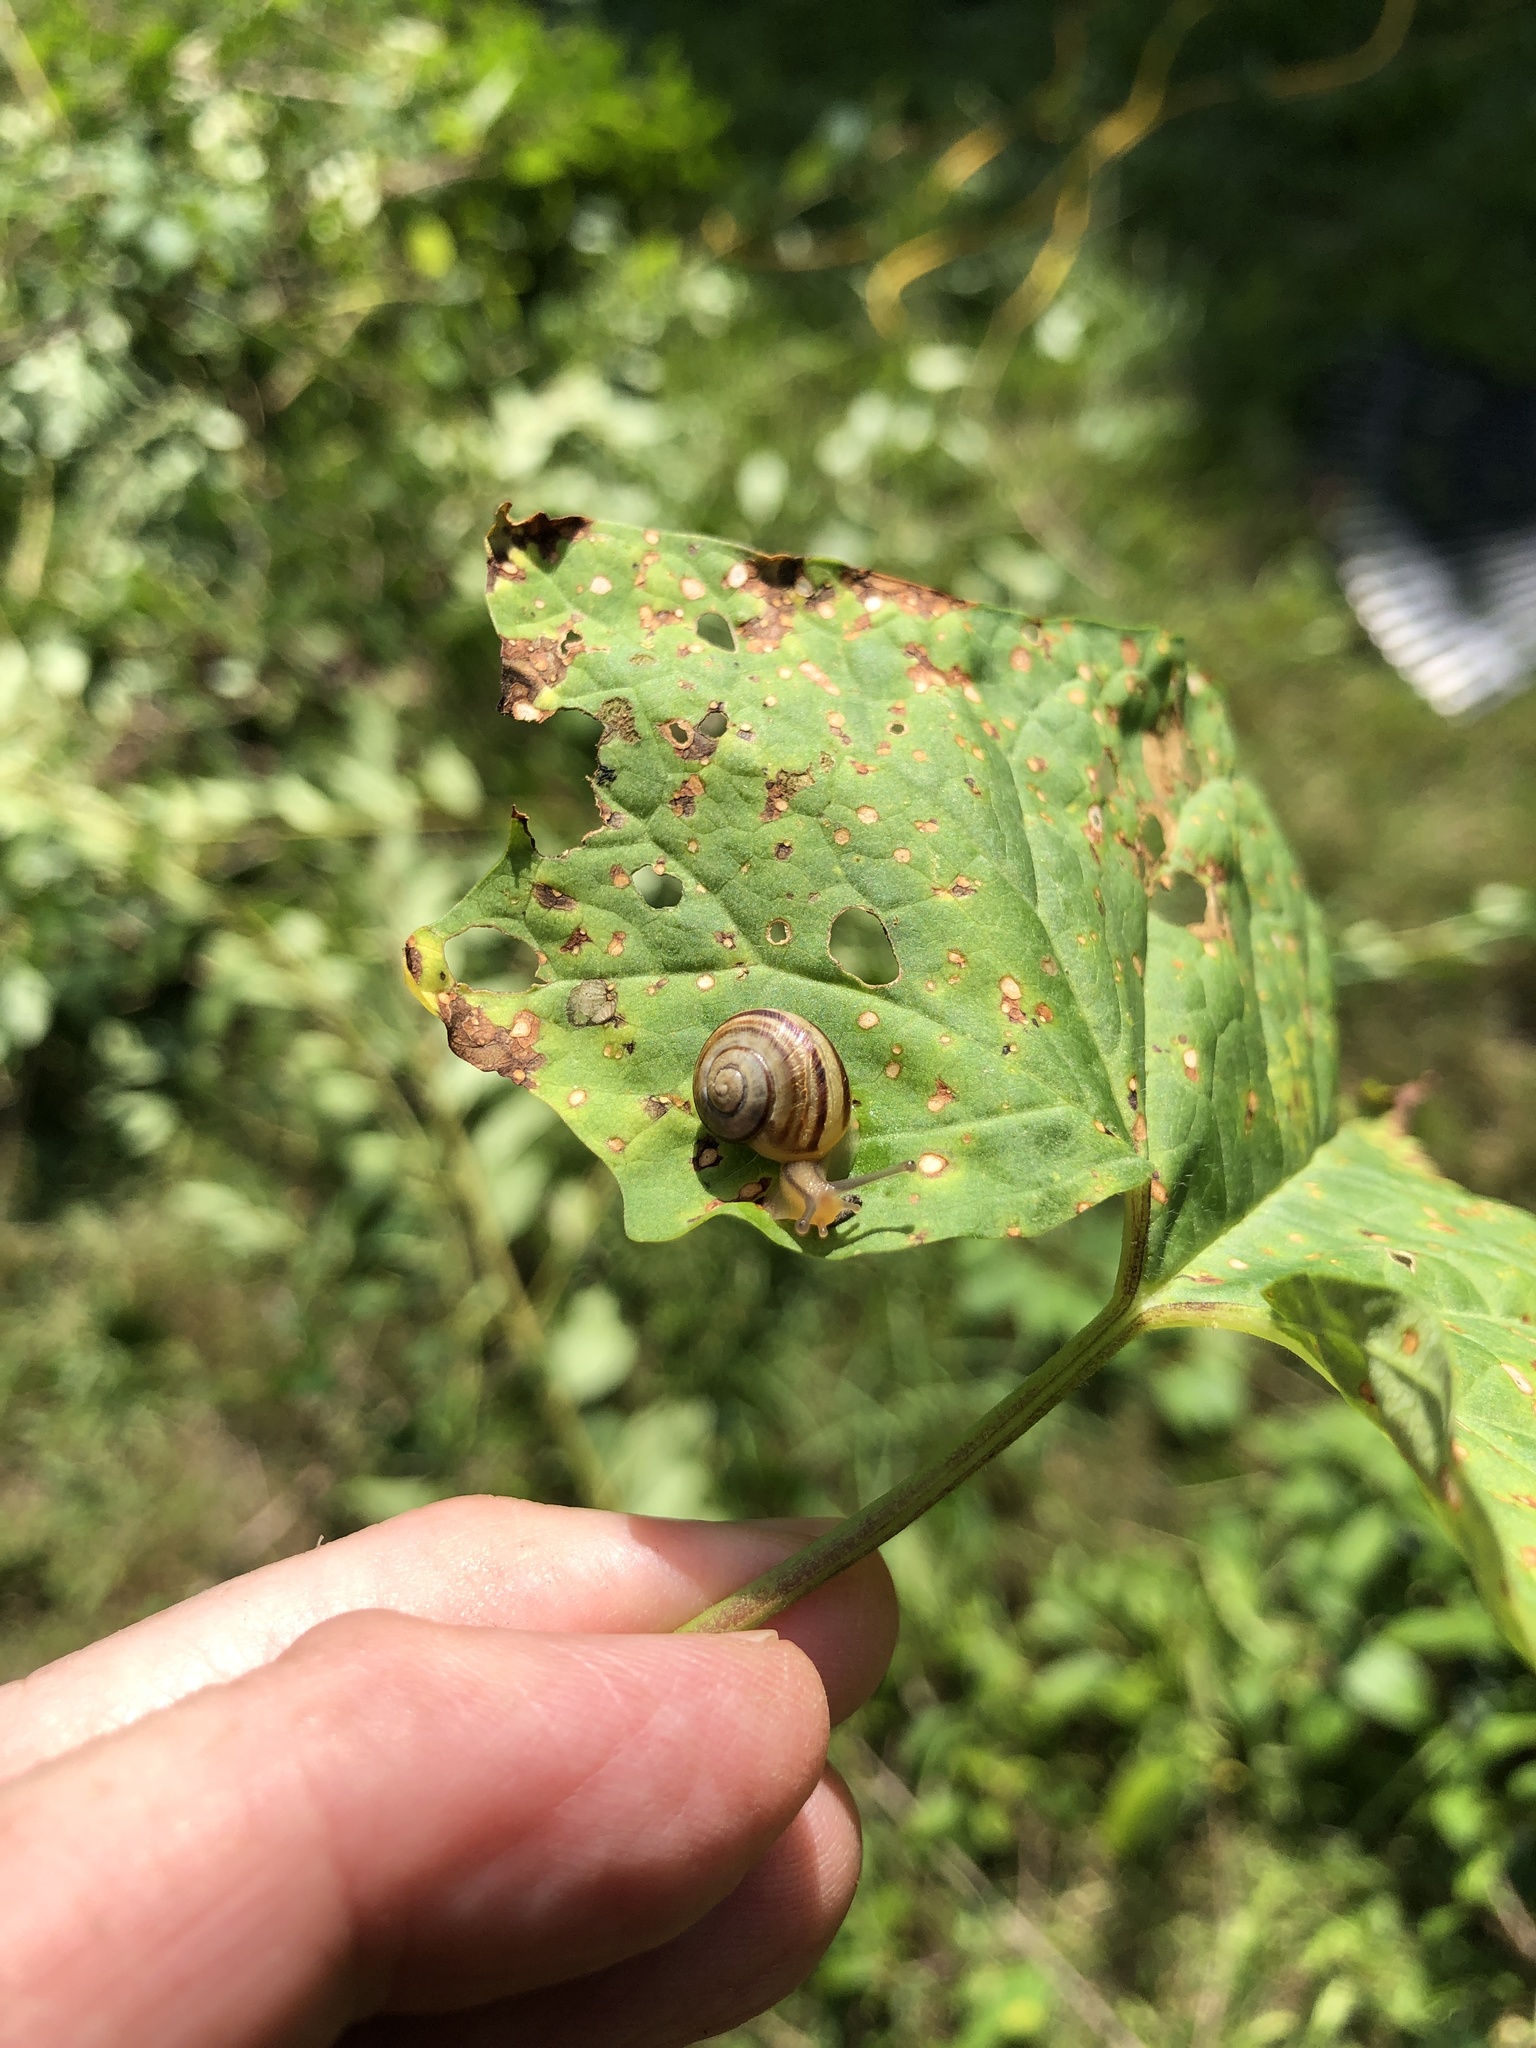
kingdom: Animalia
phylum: Mollusca
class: Gastropoda
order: Stylommatophora
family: Helicidae
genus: Cepaea
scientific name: Cepaea
